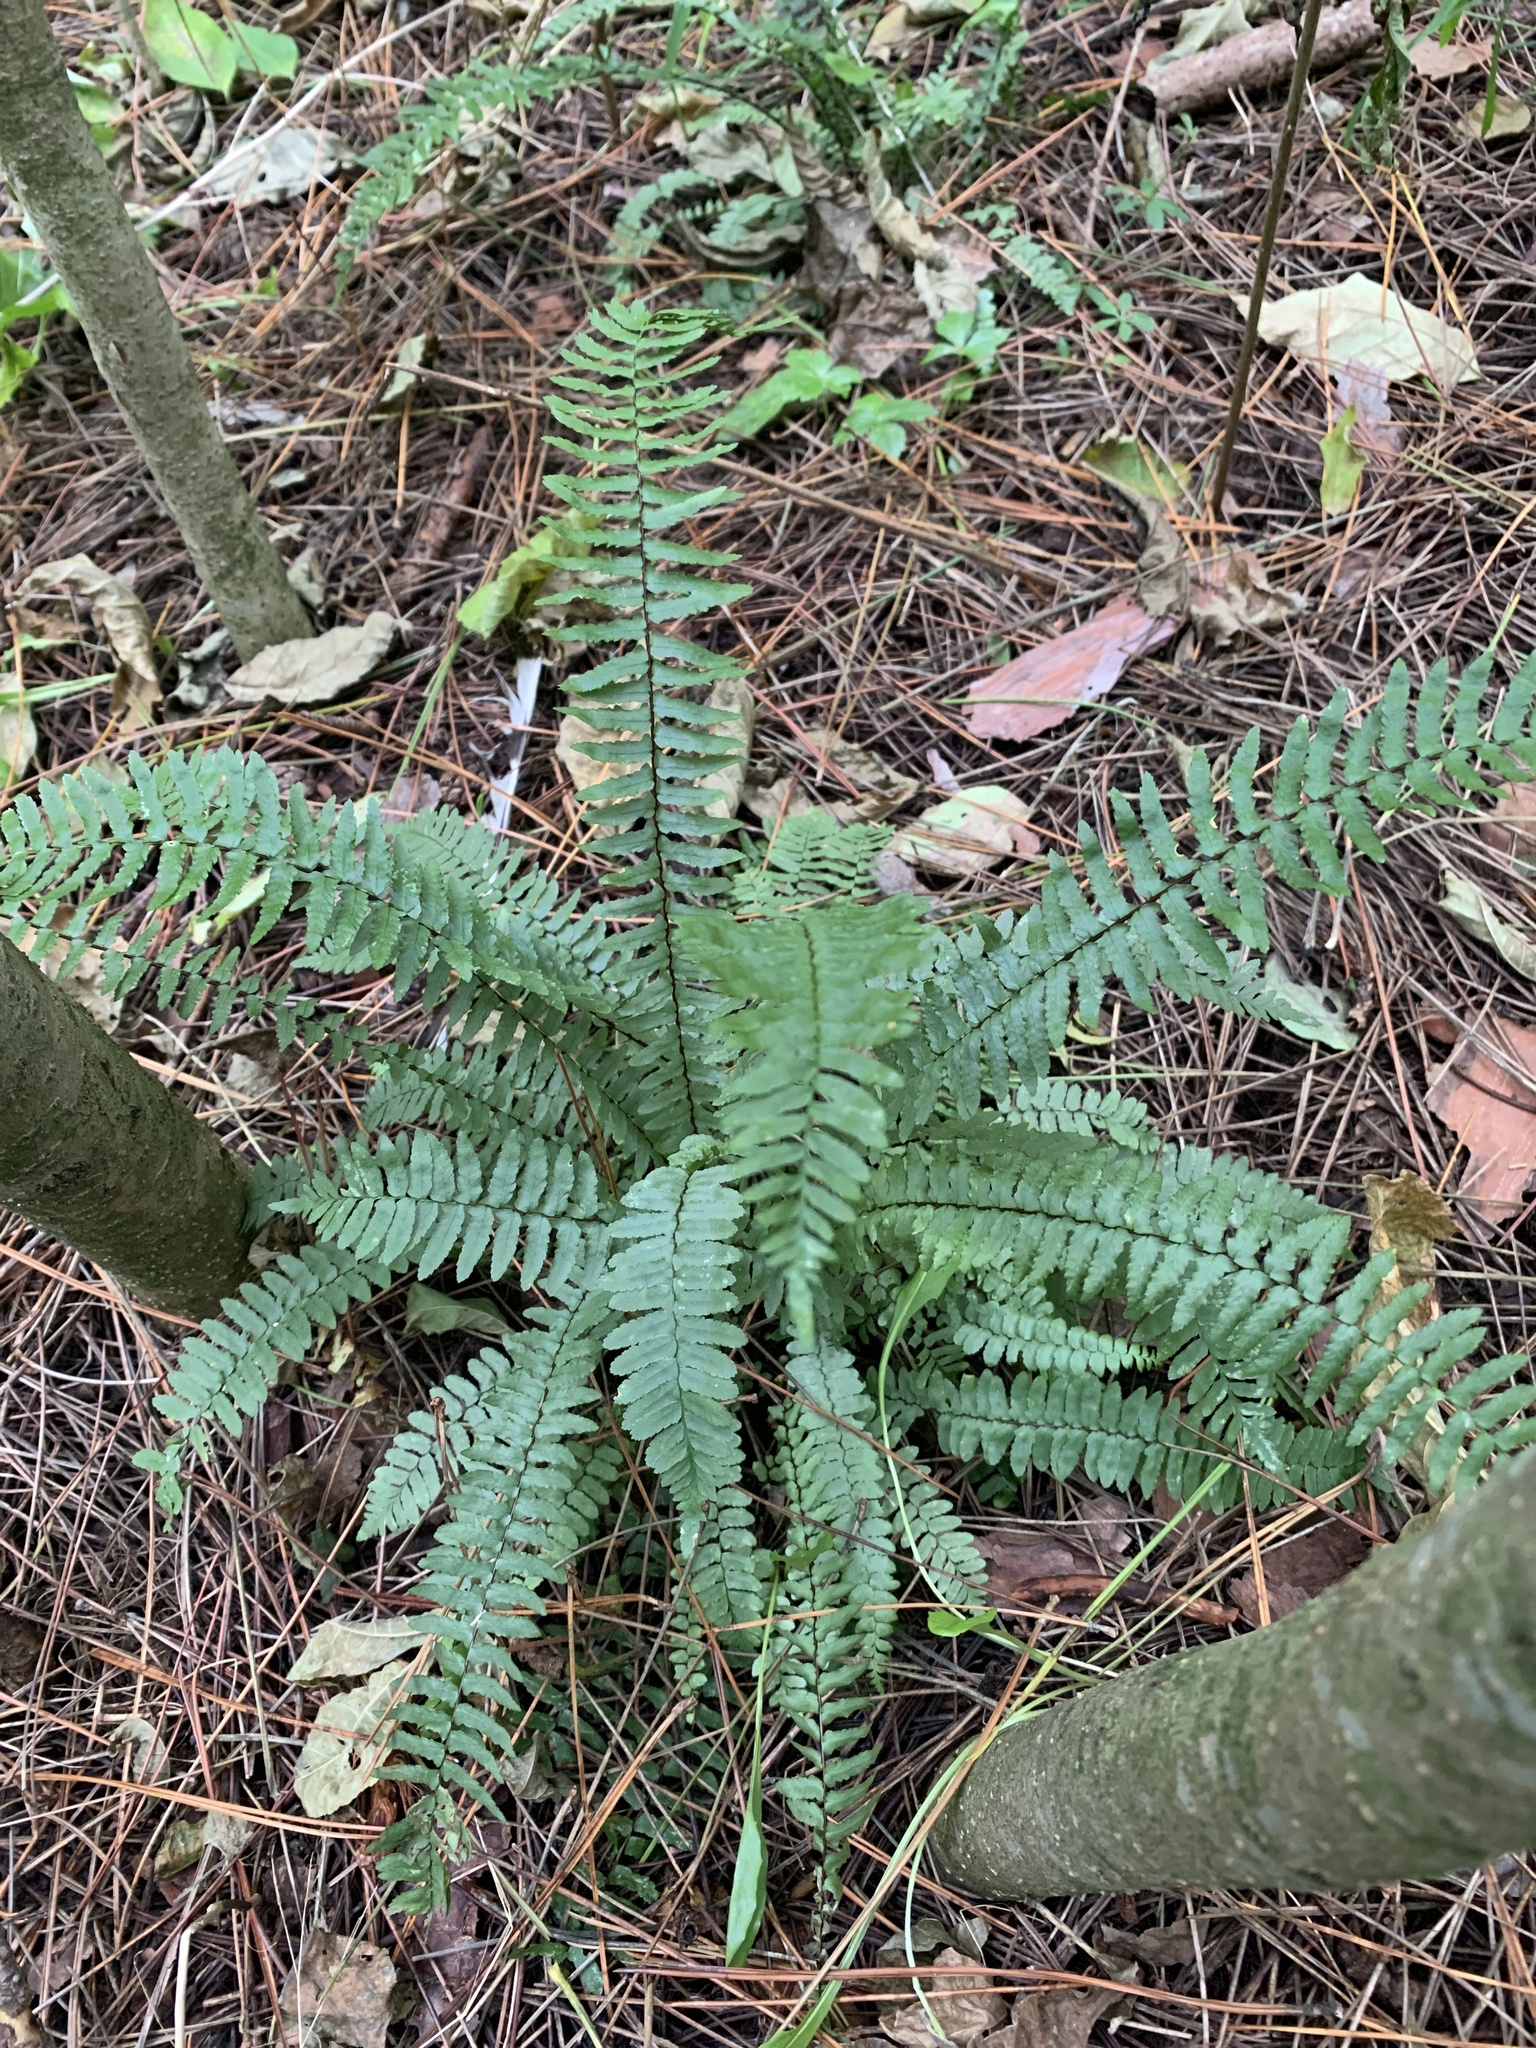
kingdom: Plantae
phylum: Tracheophyta
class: Polypodiopsida
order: Polypodiales
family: Aspleniaceae
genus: Asplenium
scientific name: Asplenium platyneuron
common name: Ebony spleenwort
